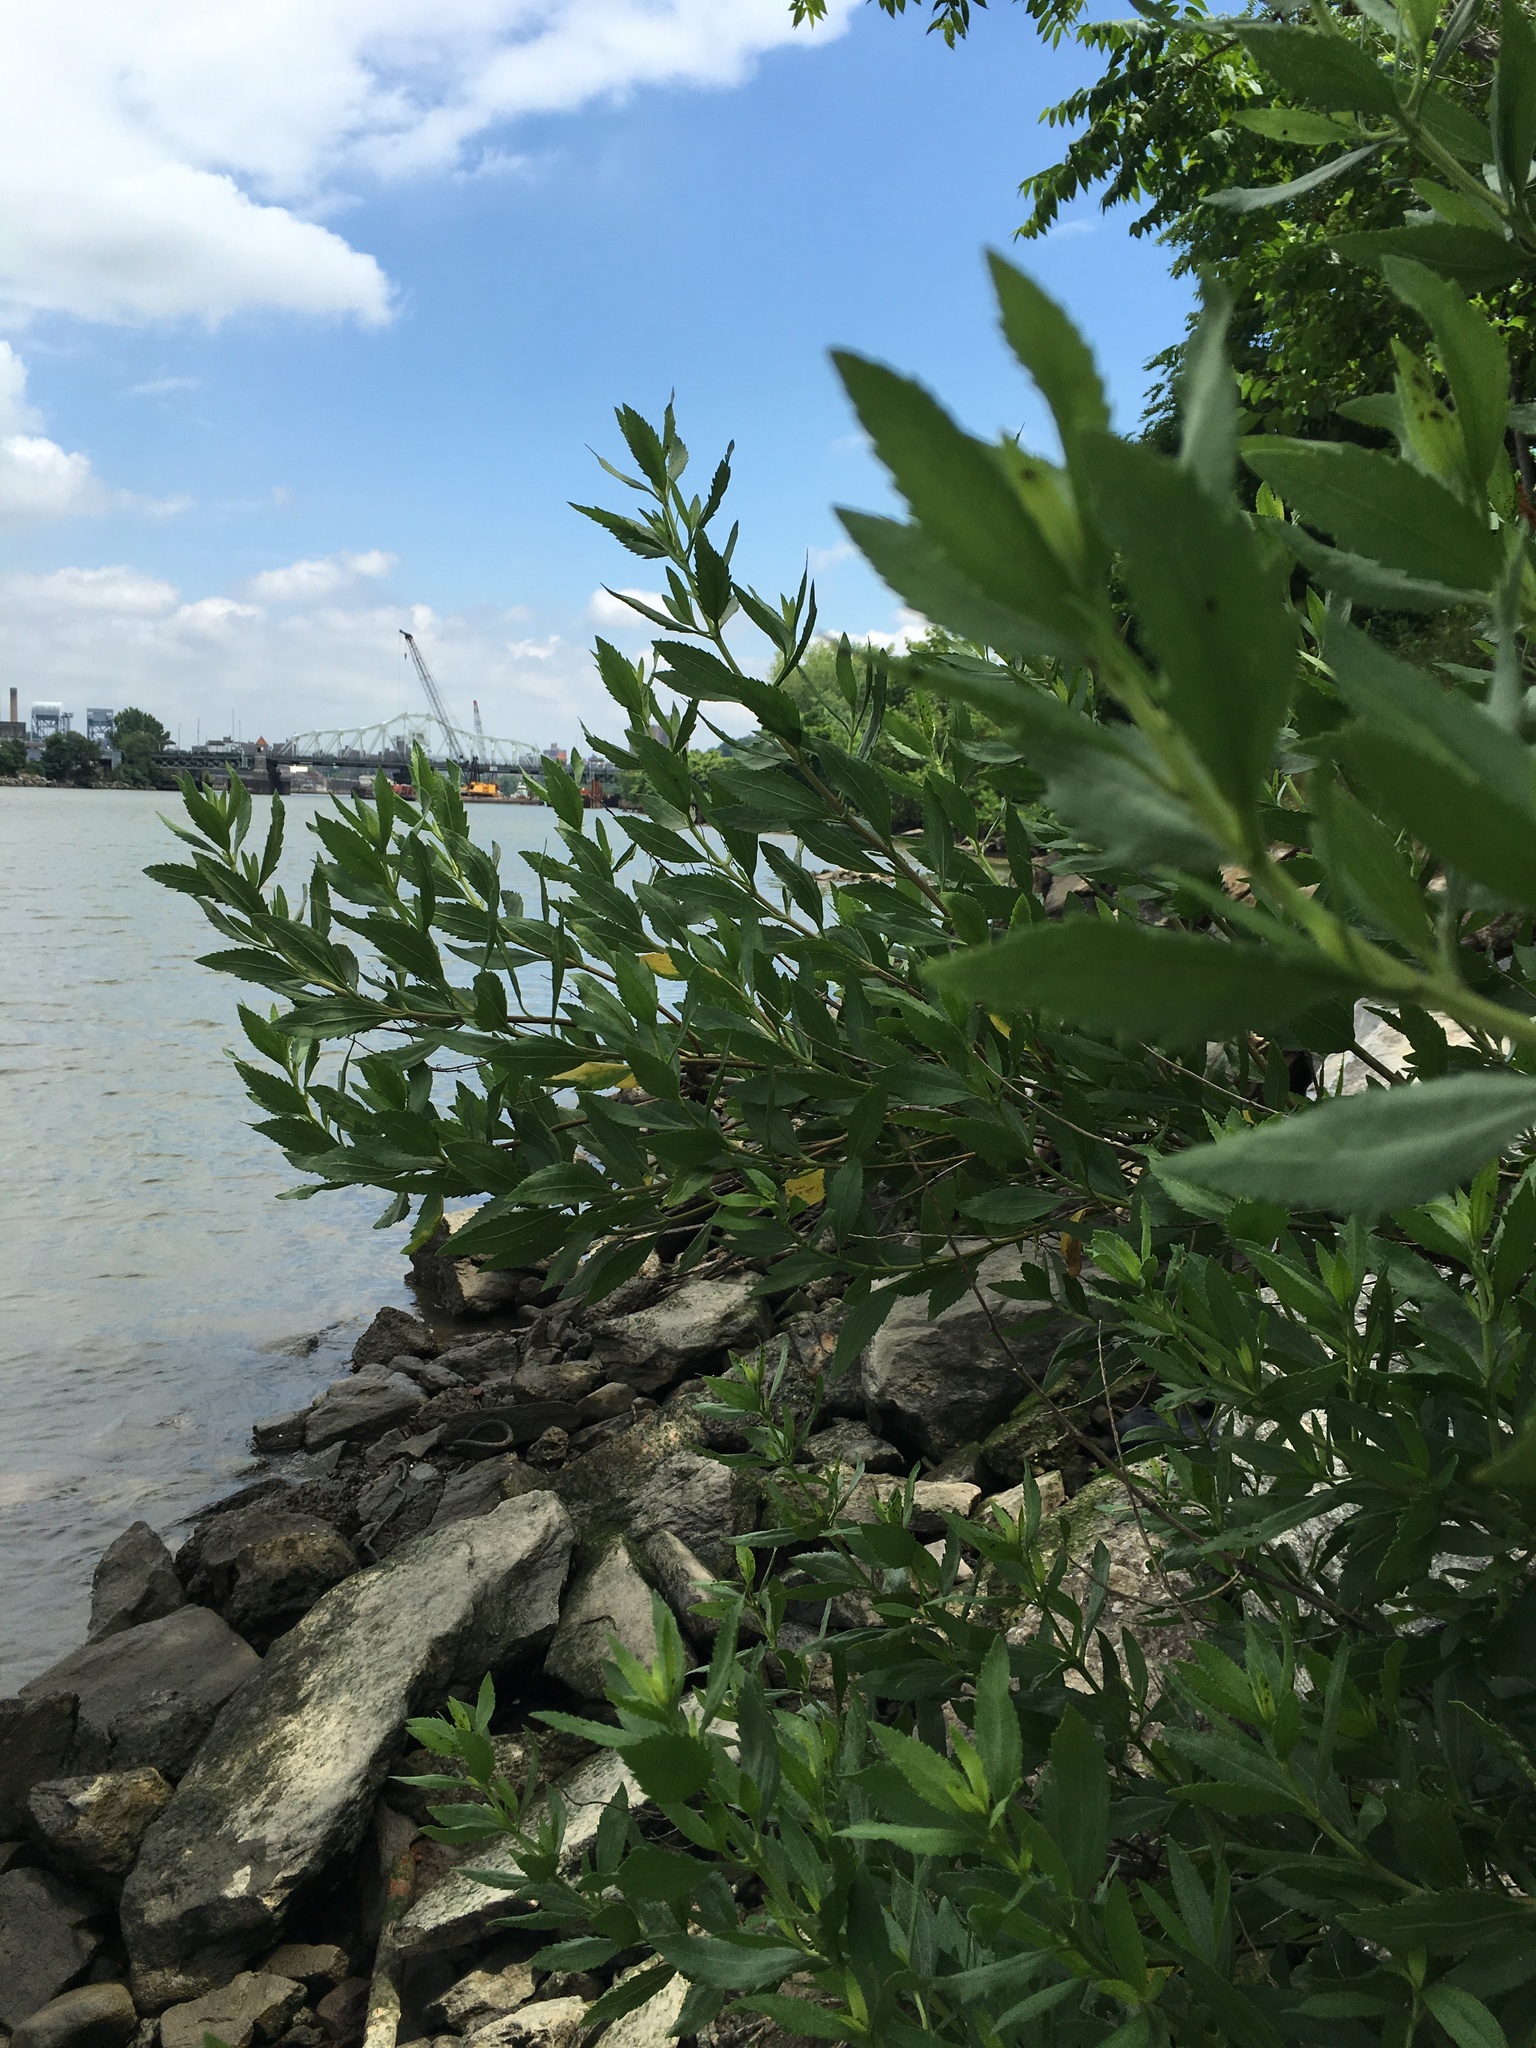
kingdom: Plantae
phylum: Tracheophyta
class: Magnoliopsida
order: Asterales
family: Asteraceae
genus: Baccharis
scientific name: Baccharis halimifolia
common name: Eastern baccharis
